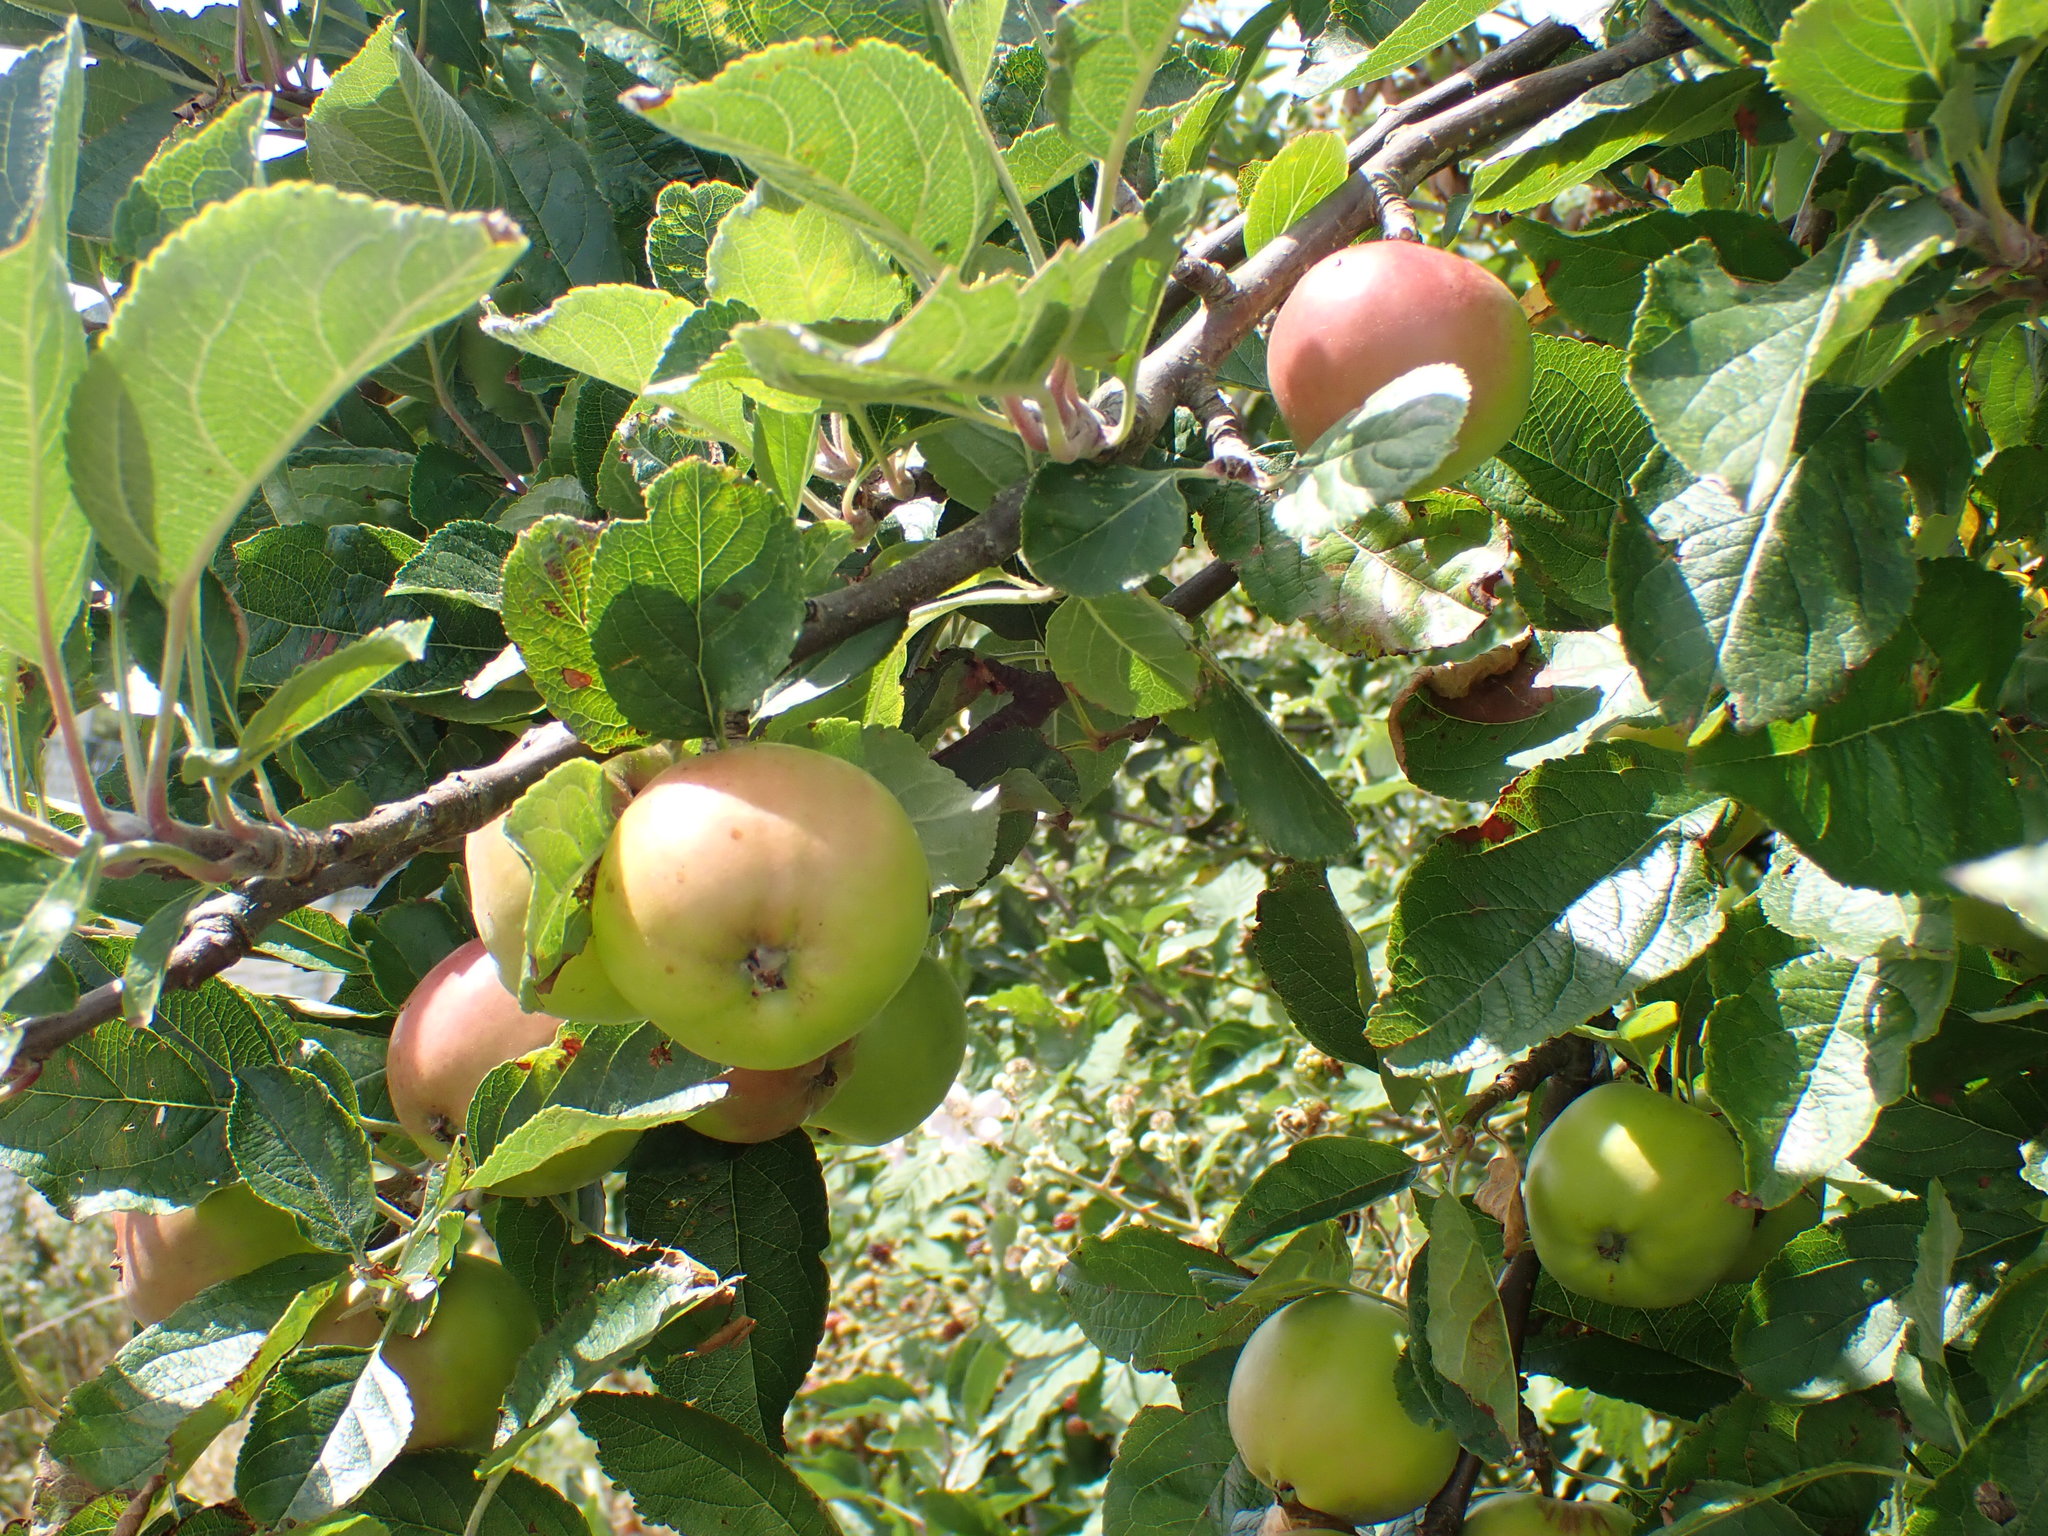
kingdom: Plantae
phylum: Tracheophyta
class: Magnoliopsida
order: Rosales
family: Rosaceae
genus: Malus
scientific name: Malus domestica
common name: Apple
